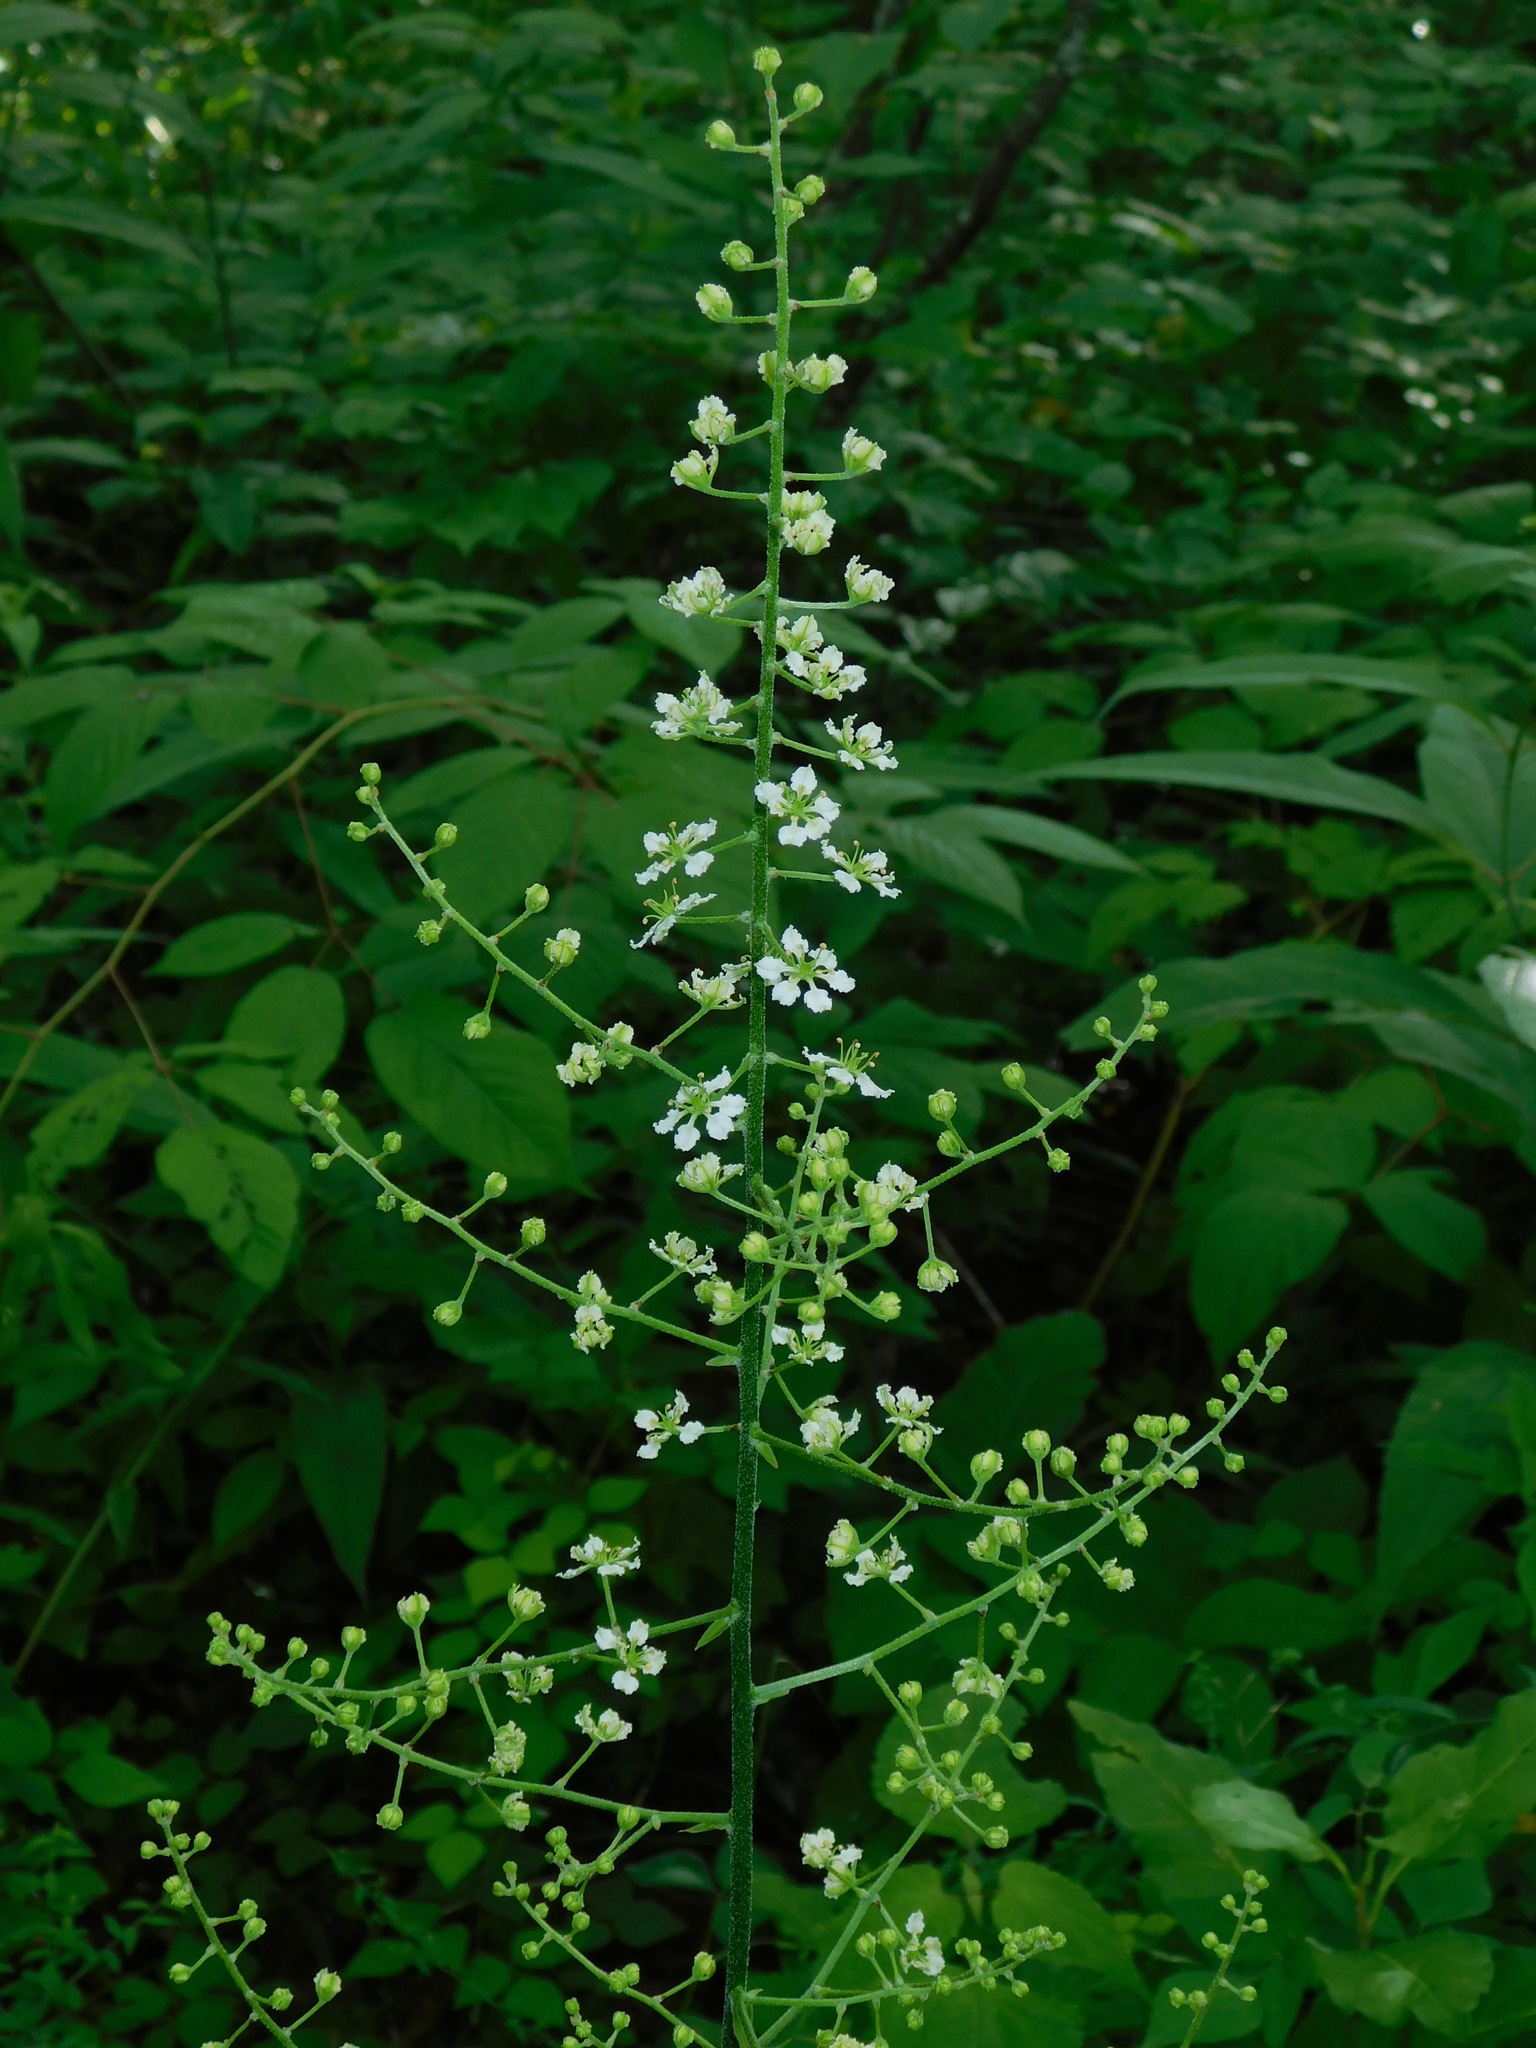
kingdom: Plantae
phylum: Tracheophyta
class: Liliopsida
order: Liliales
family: Melanthiaceae
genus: Melanthium
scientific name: Melanthium virginicum
